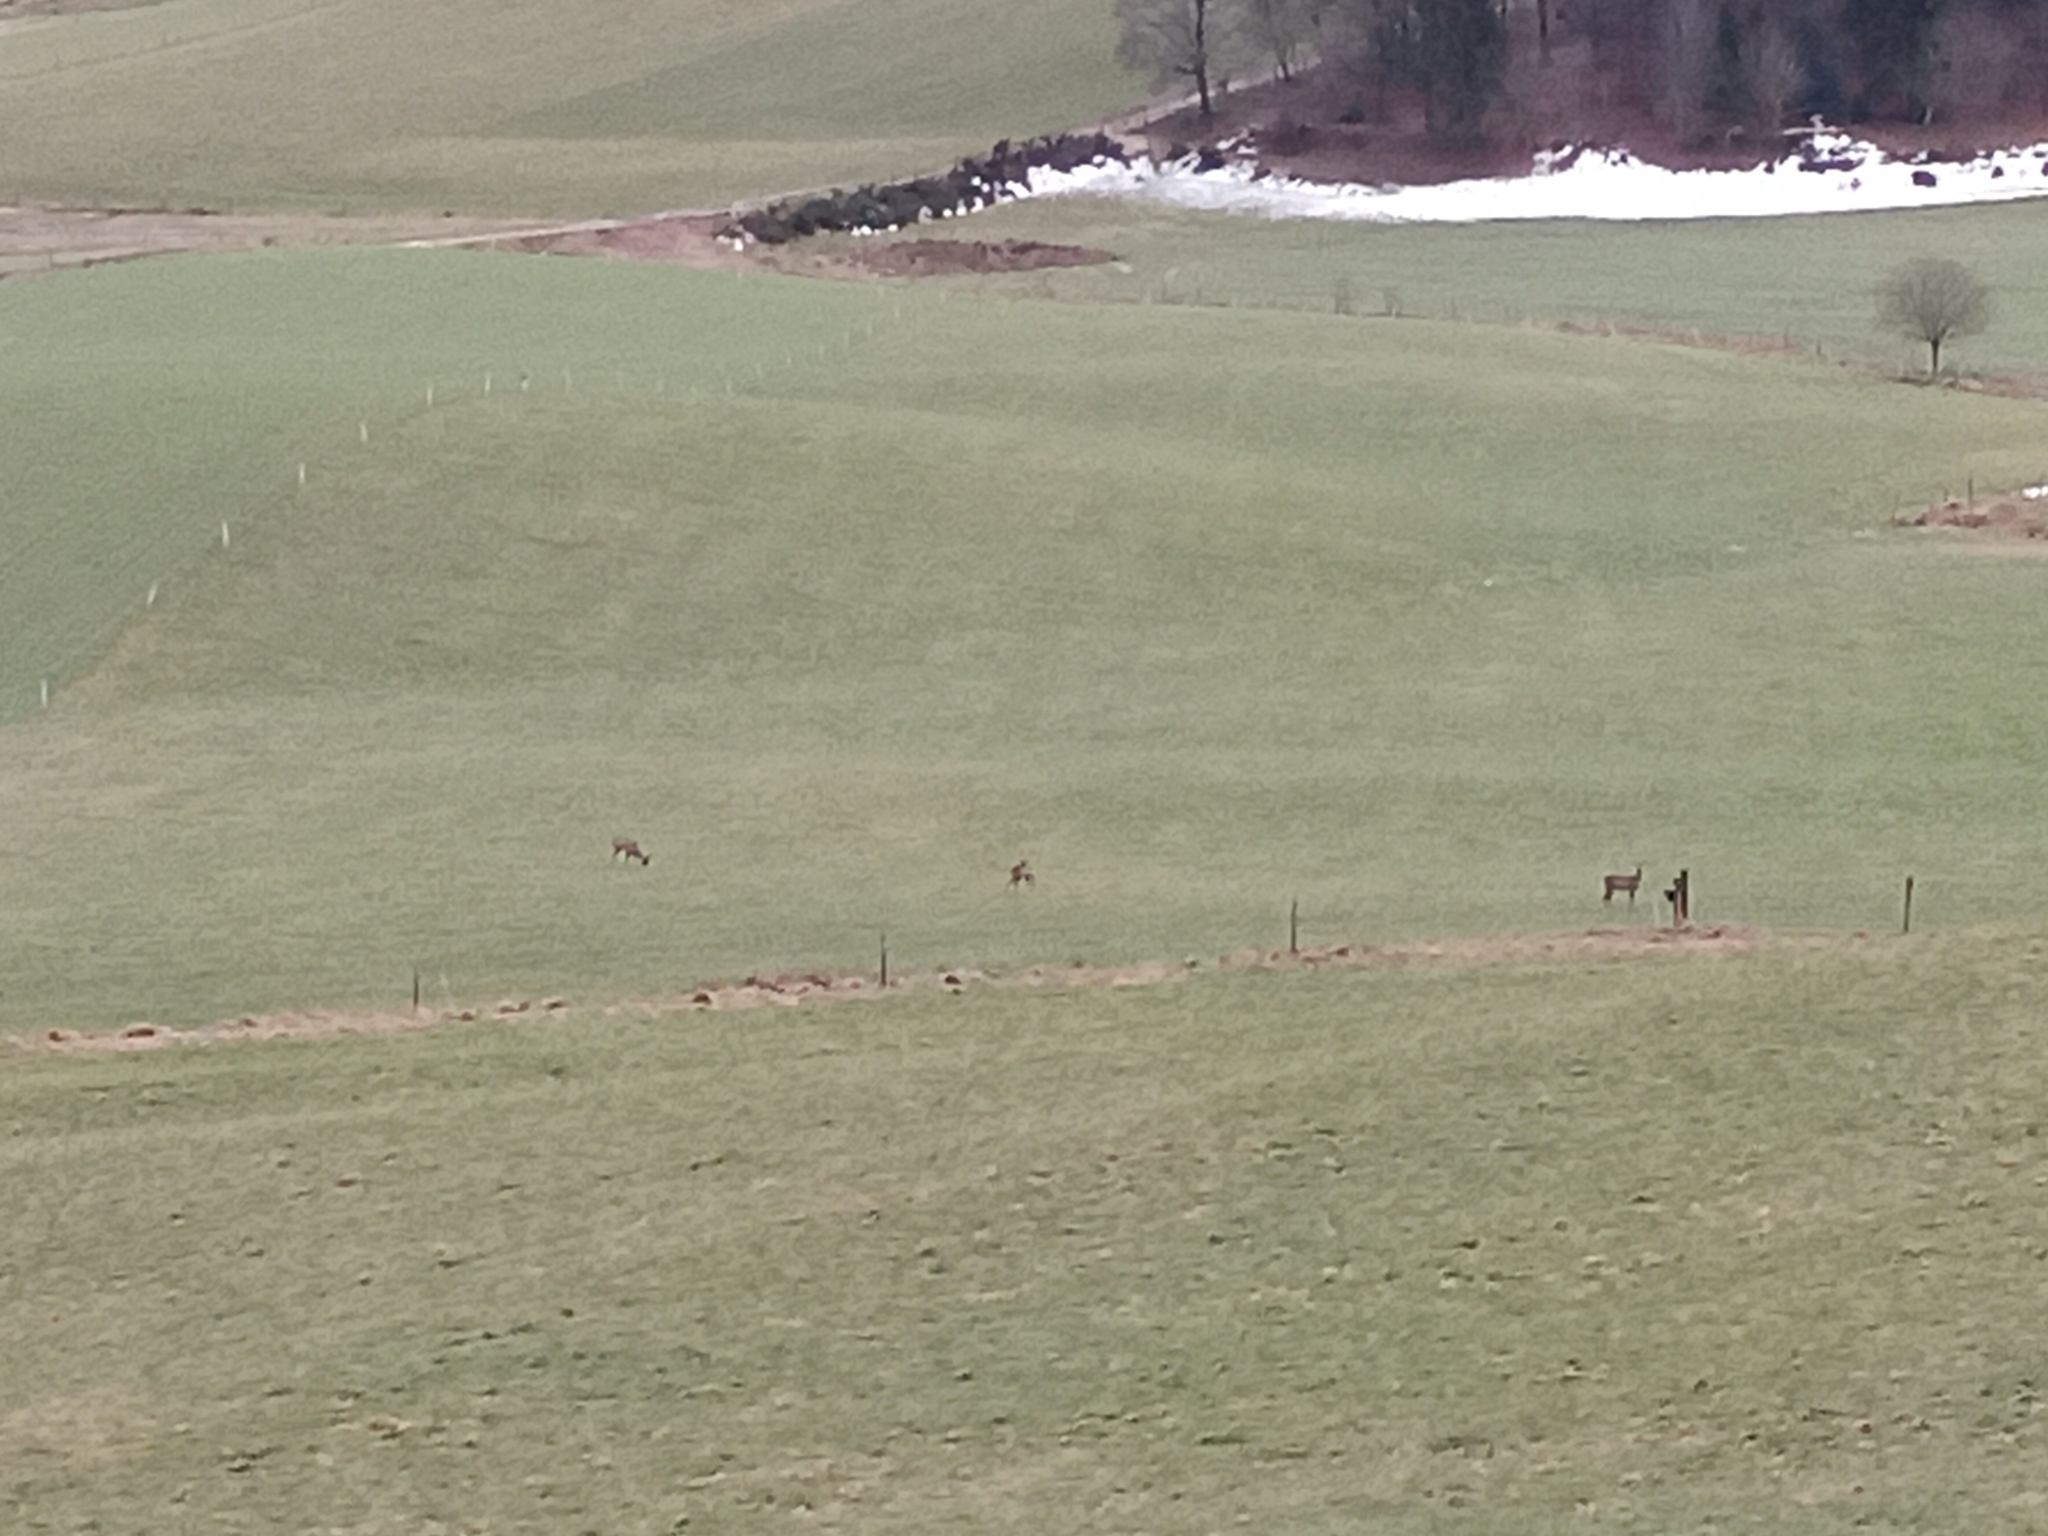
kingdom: Animalia
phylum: Chordata
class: Mammalia
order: Artiodactyla
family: Cervidae
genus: Capreolus
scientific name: Capreolus capreolus
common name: Western roe deer
